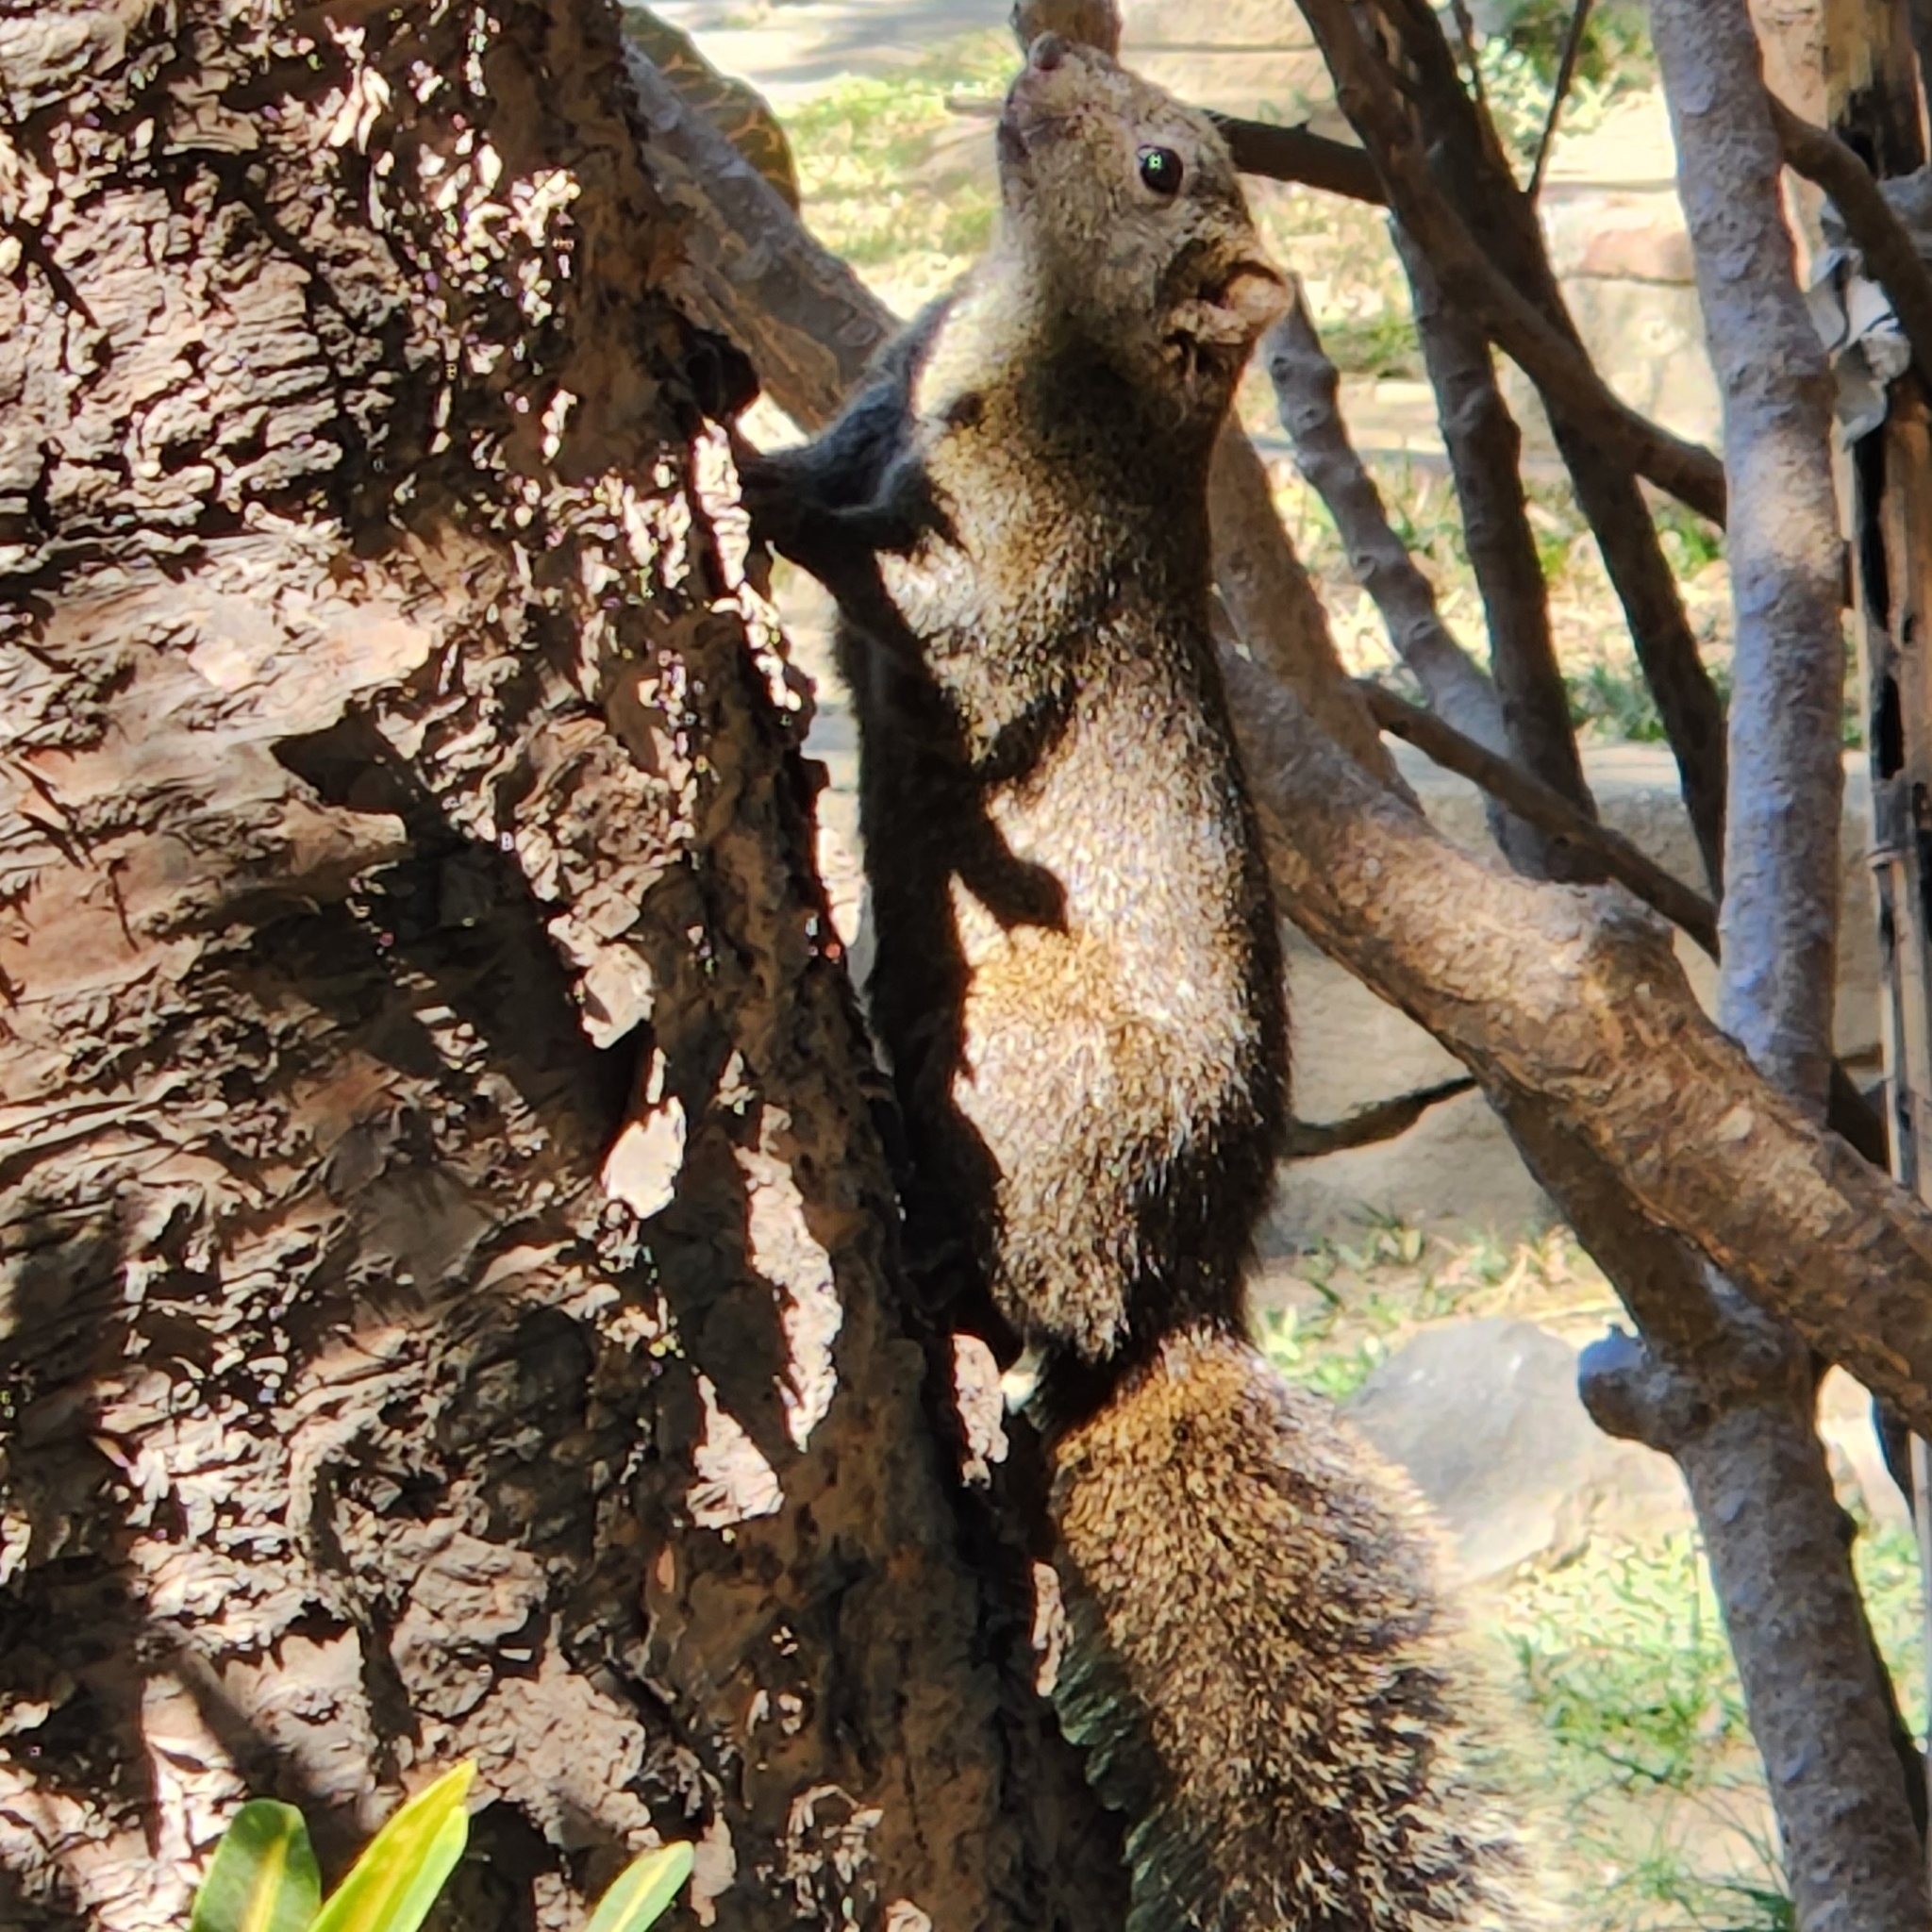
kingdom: Animalia
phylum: Chordata
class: Mammalia
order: Rodentia
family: Sciuridae
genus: Callosciurus
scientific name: Callosciurus erythraeus
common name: Pallas's squirrel
